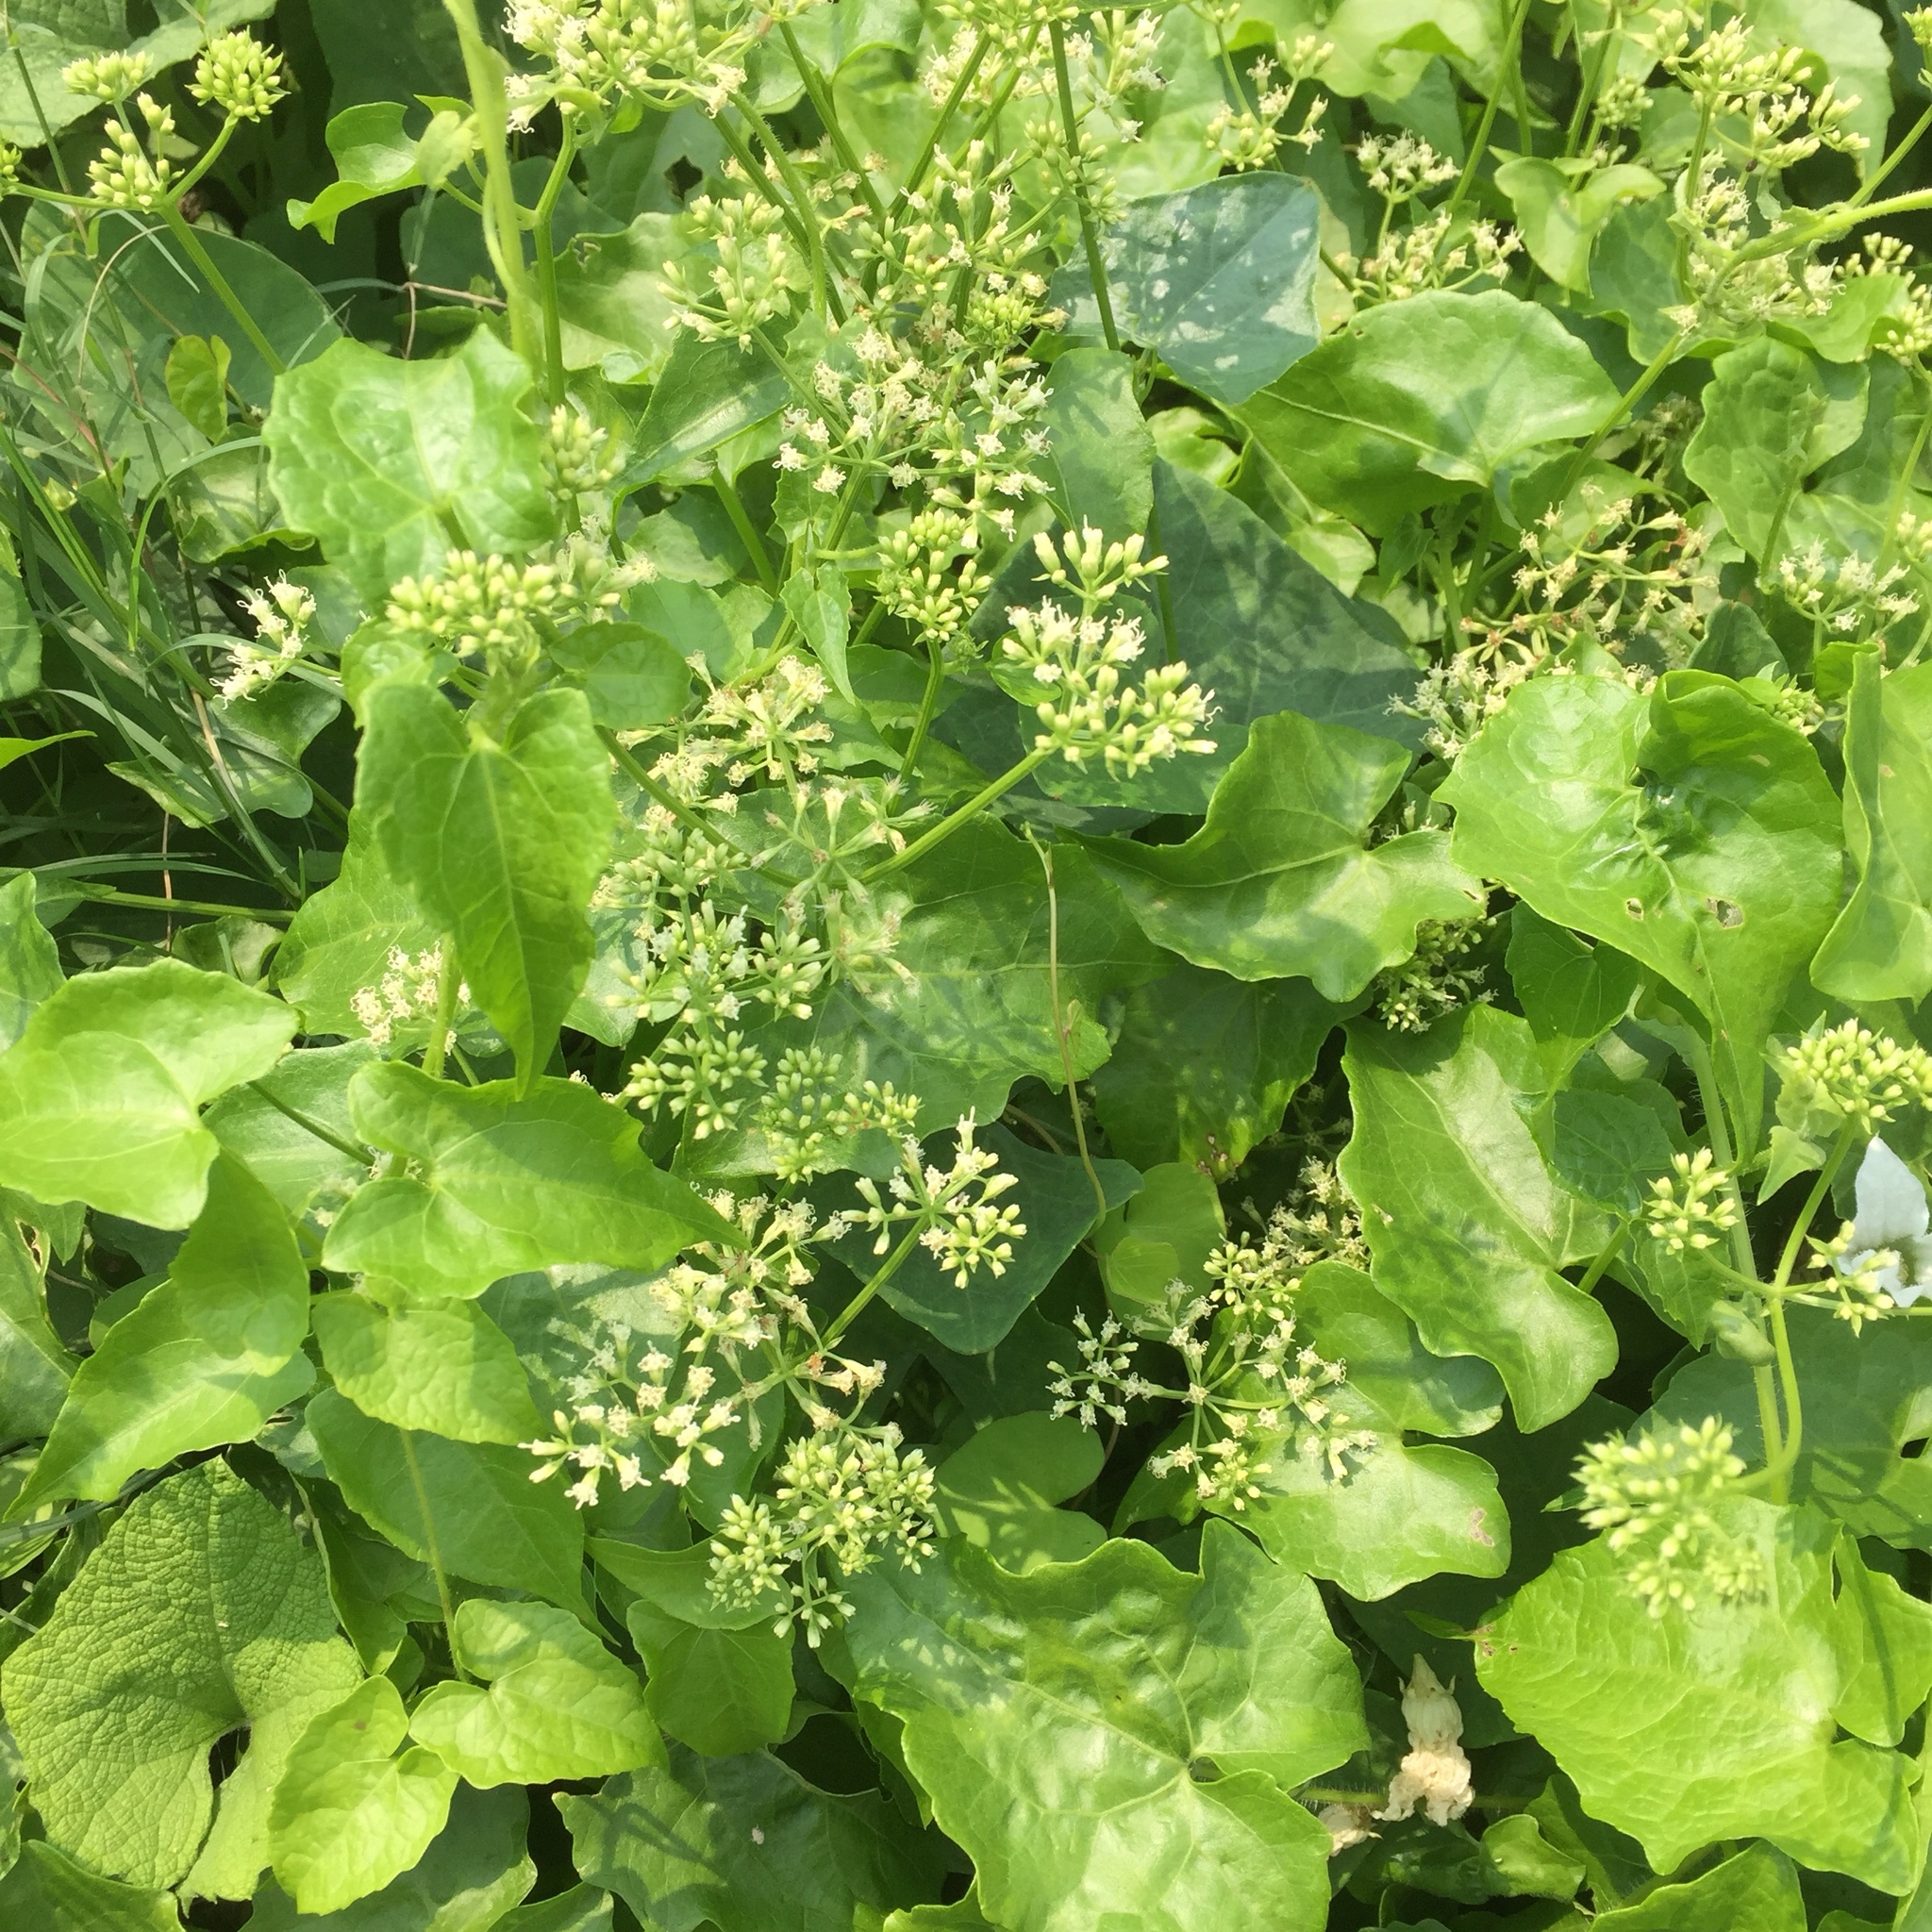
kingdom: Plantae
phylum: Tracheophyta
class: Magnoliopsida
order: Asterales
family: Asteraceae
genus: Mikania
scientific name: Mikania micrantha
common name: Mile-a-minute
